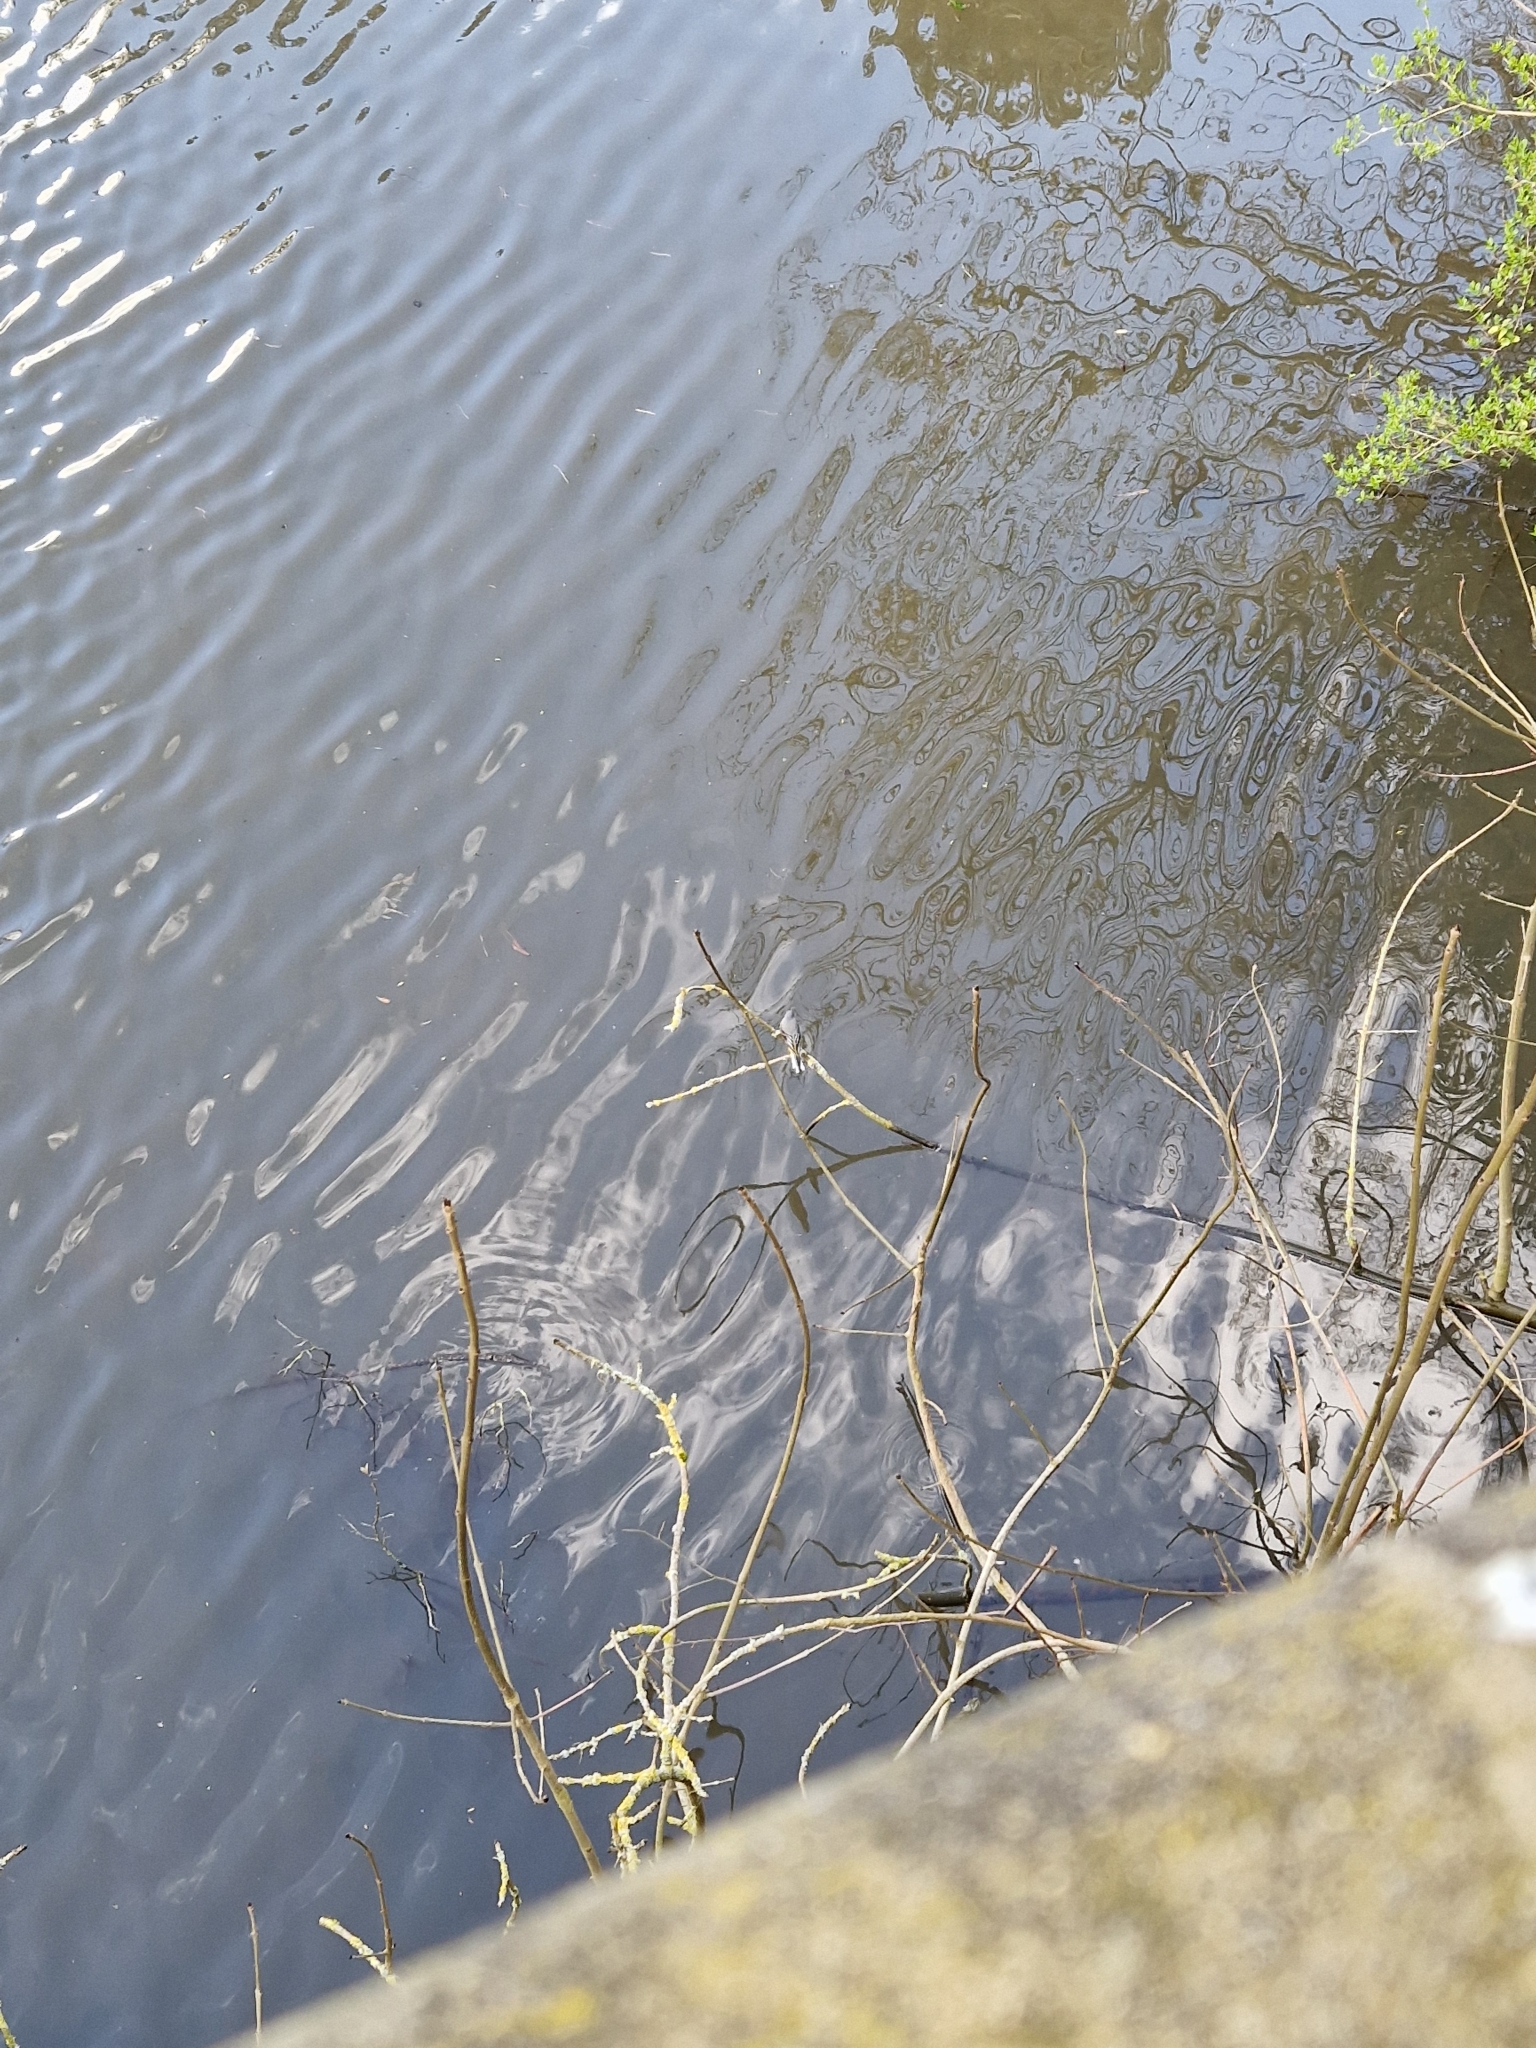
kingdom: Animalia
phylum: Chordata
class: Aves
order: Passeriformes
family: Motacillidae
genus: Motacilla
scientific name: Motacilla cinerea
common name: Grey wagtail
